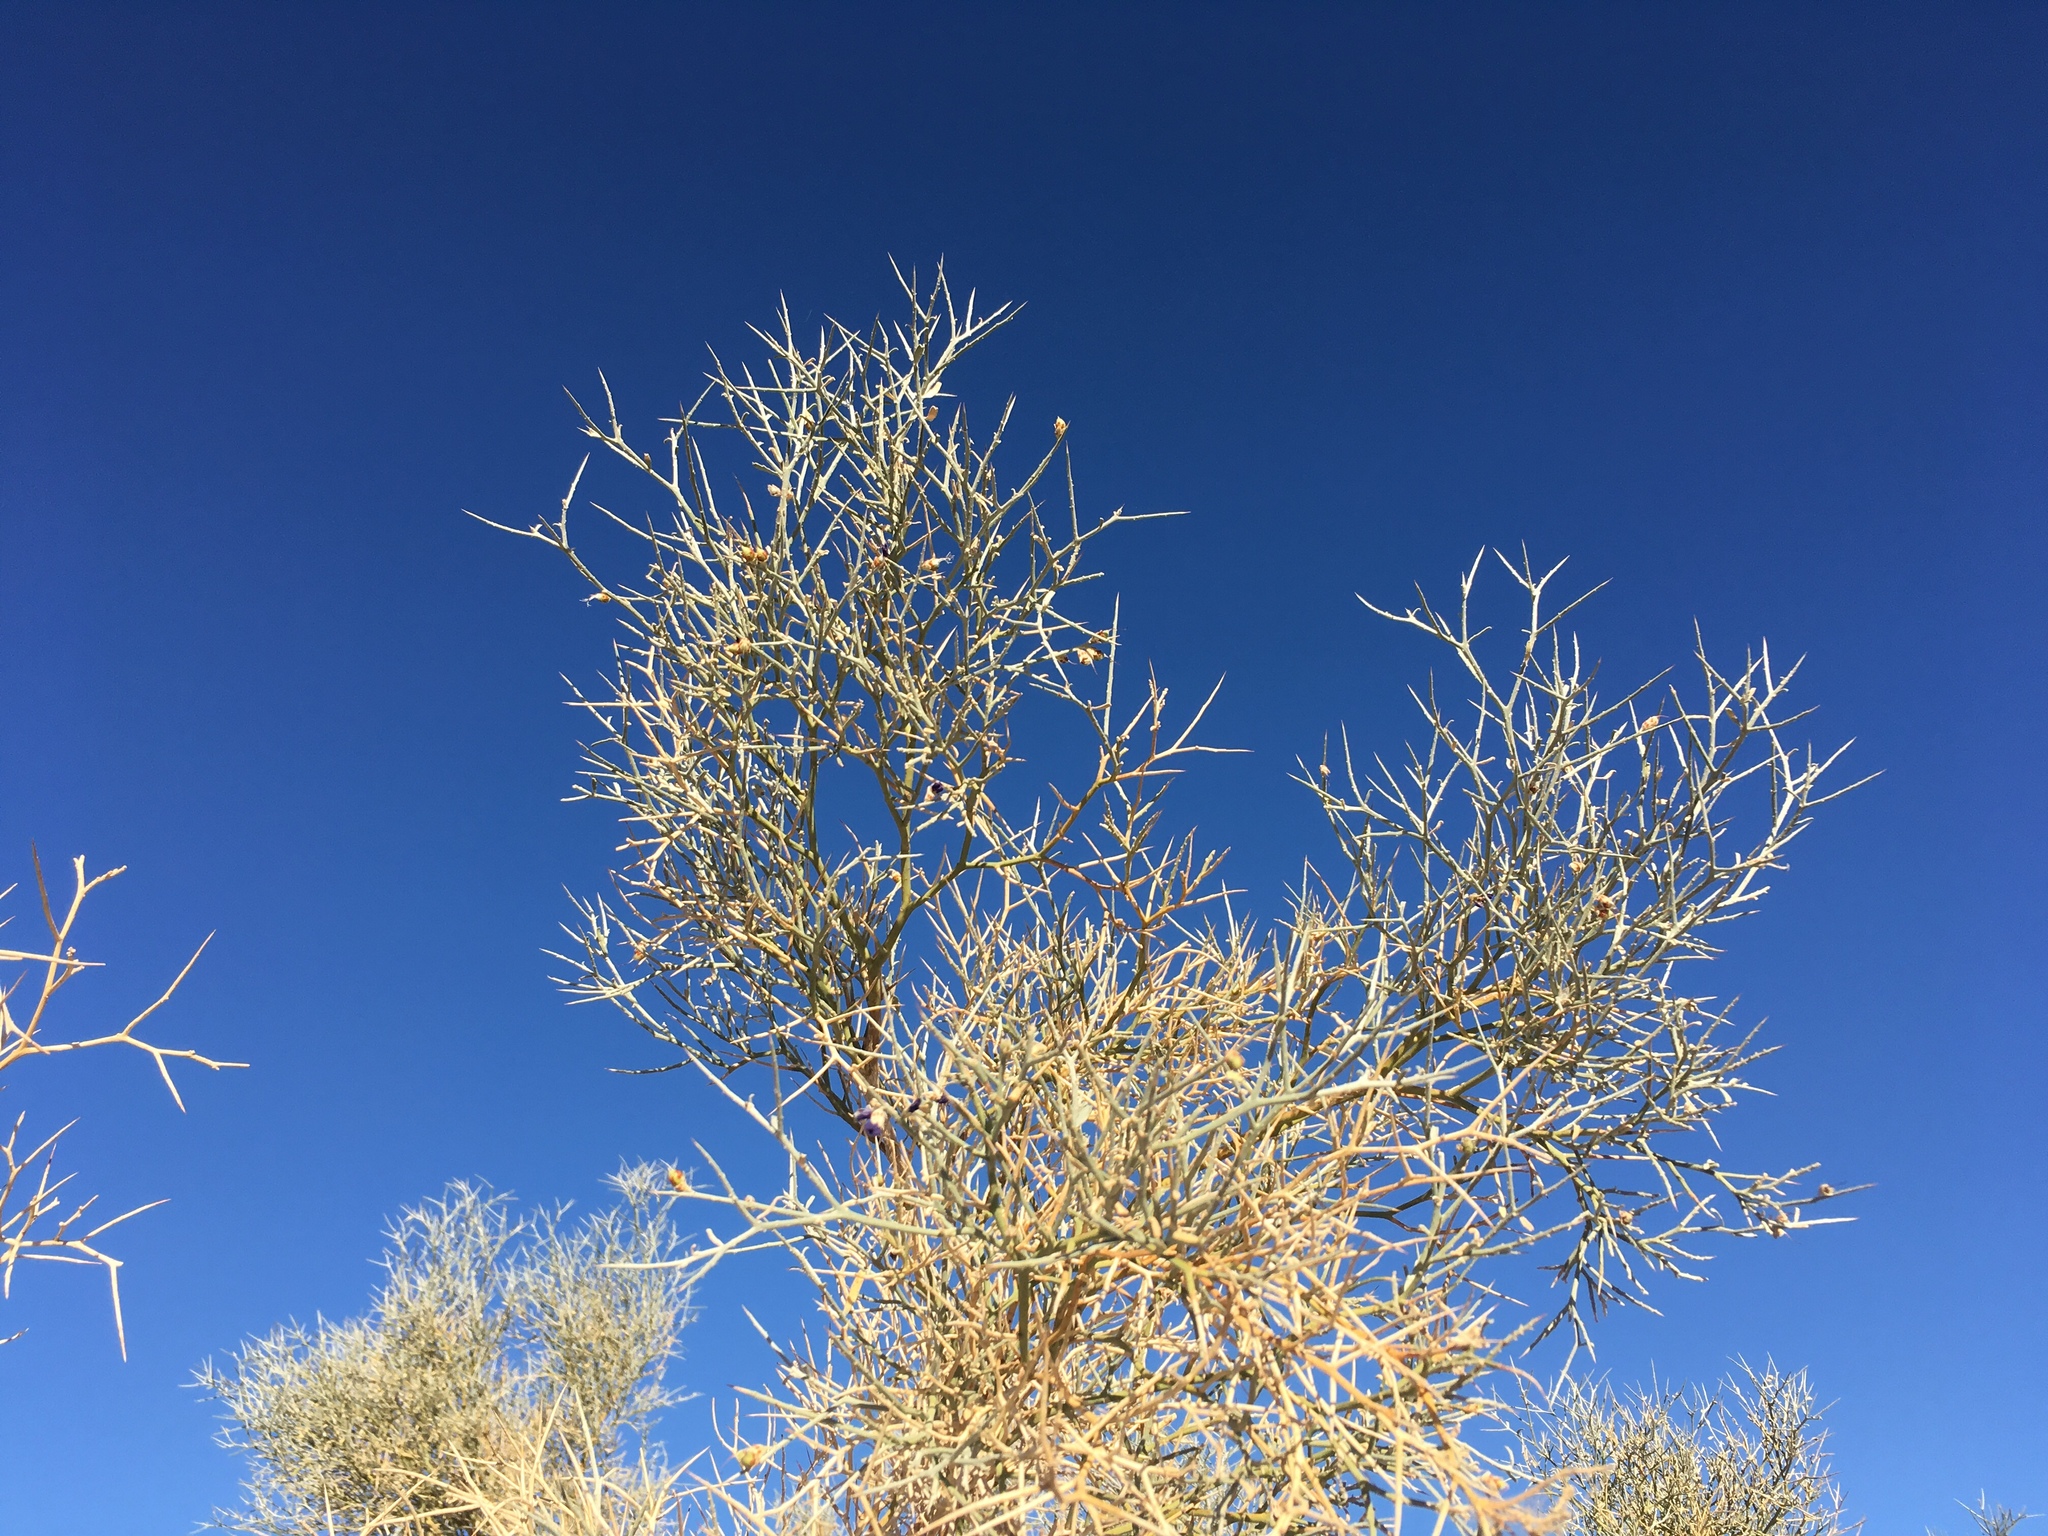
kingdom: Plantae
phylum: Tracheophyta
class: Magnoliopsida
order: Fabales
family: Fabaceae
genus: Psorothamnus
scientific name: Psorothamnus spinosus
